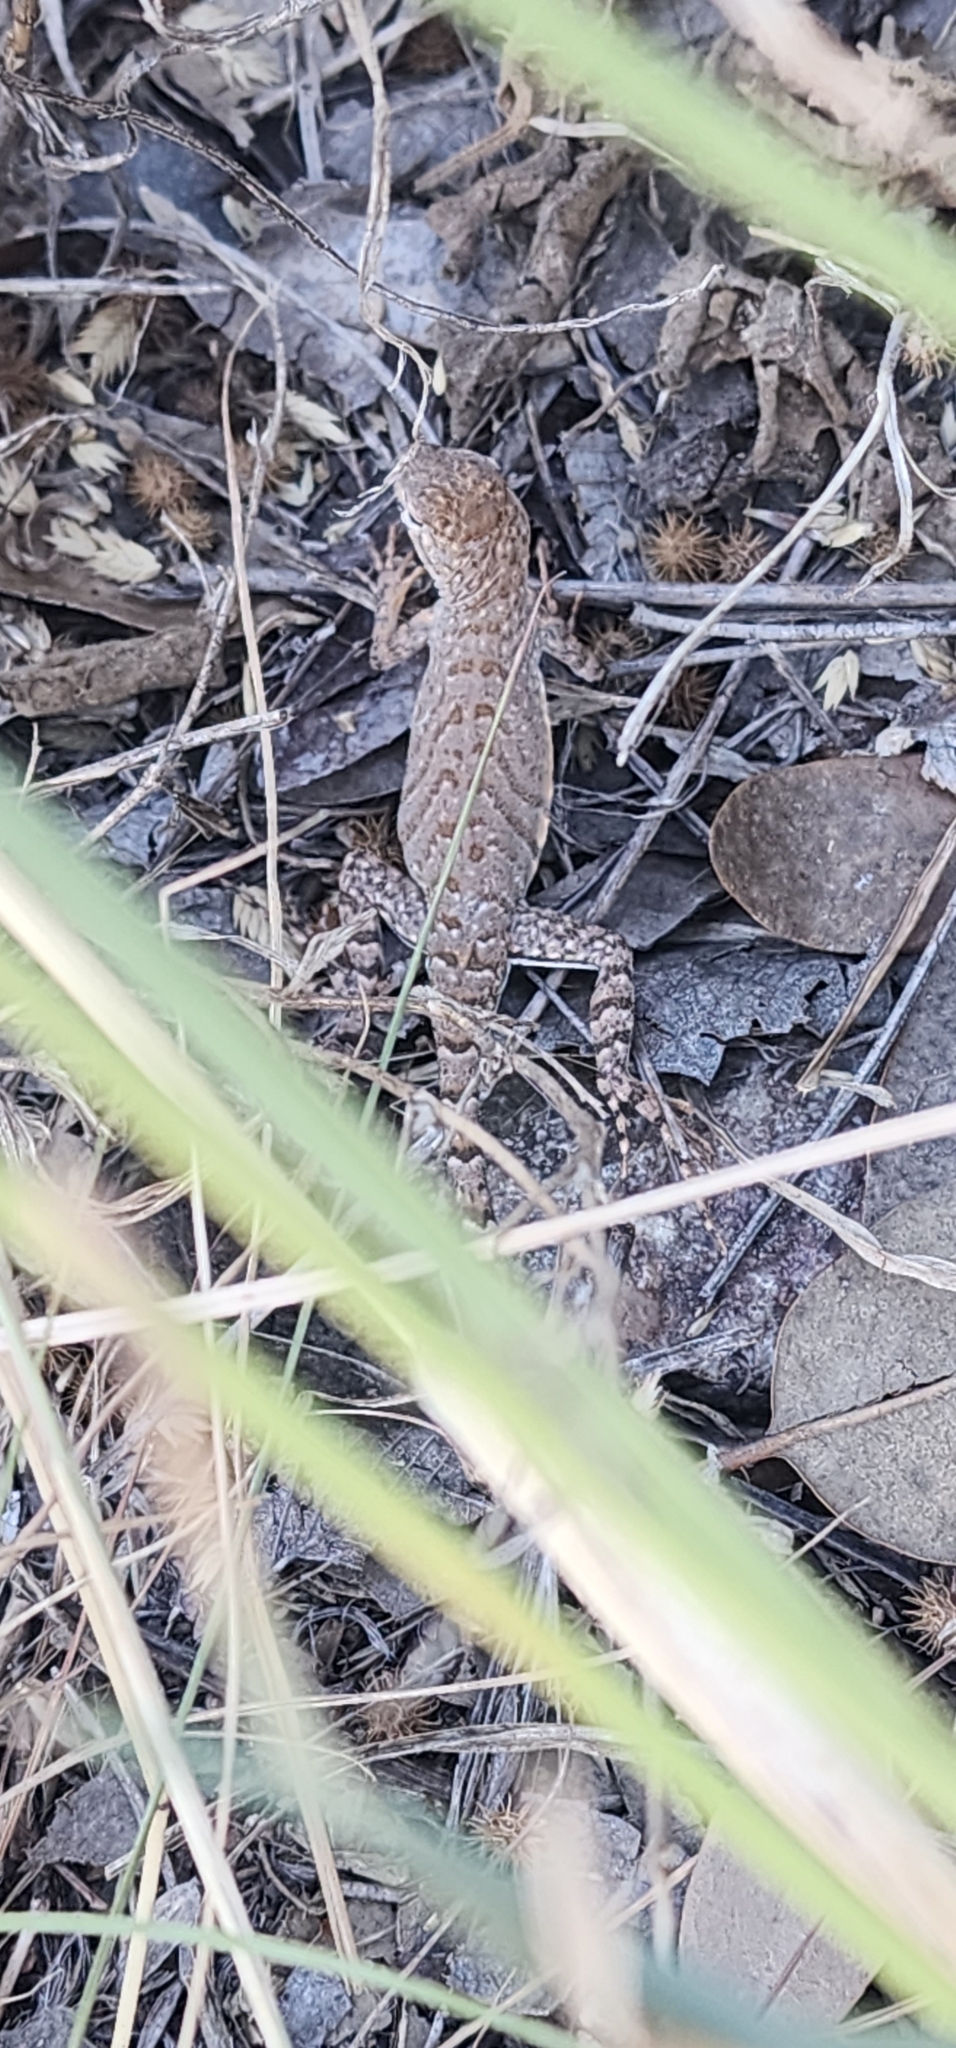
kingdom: Animalia
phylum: Chordata
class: Squamata
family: Phrynosomatidae
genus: Cophosaurus
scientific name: Cophosaurus texanus
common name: Greater earless lizard
